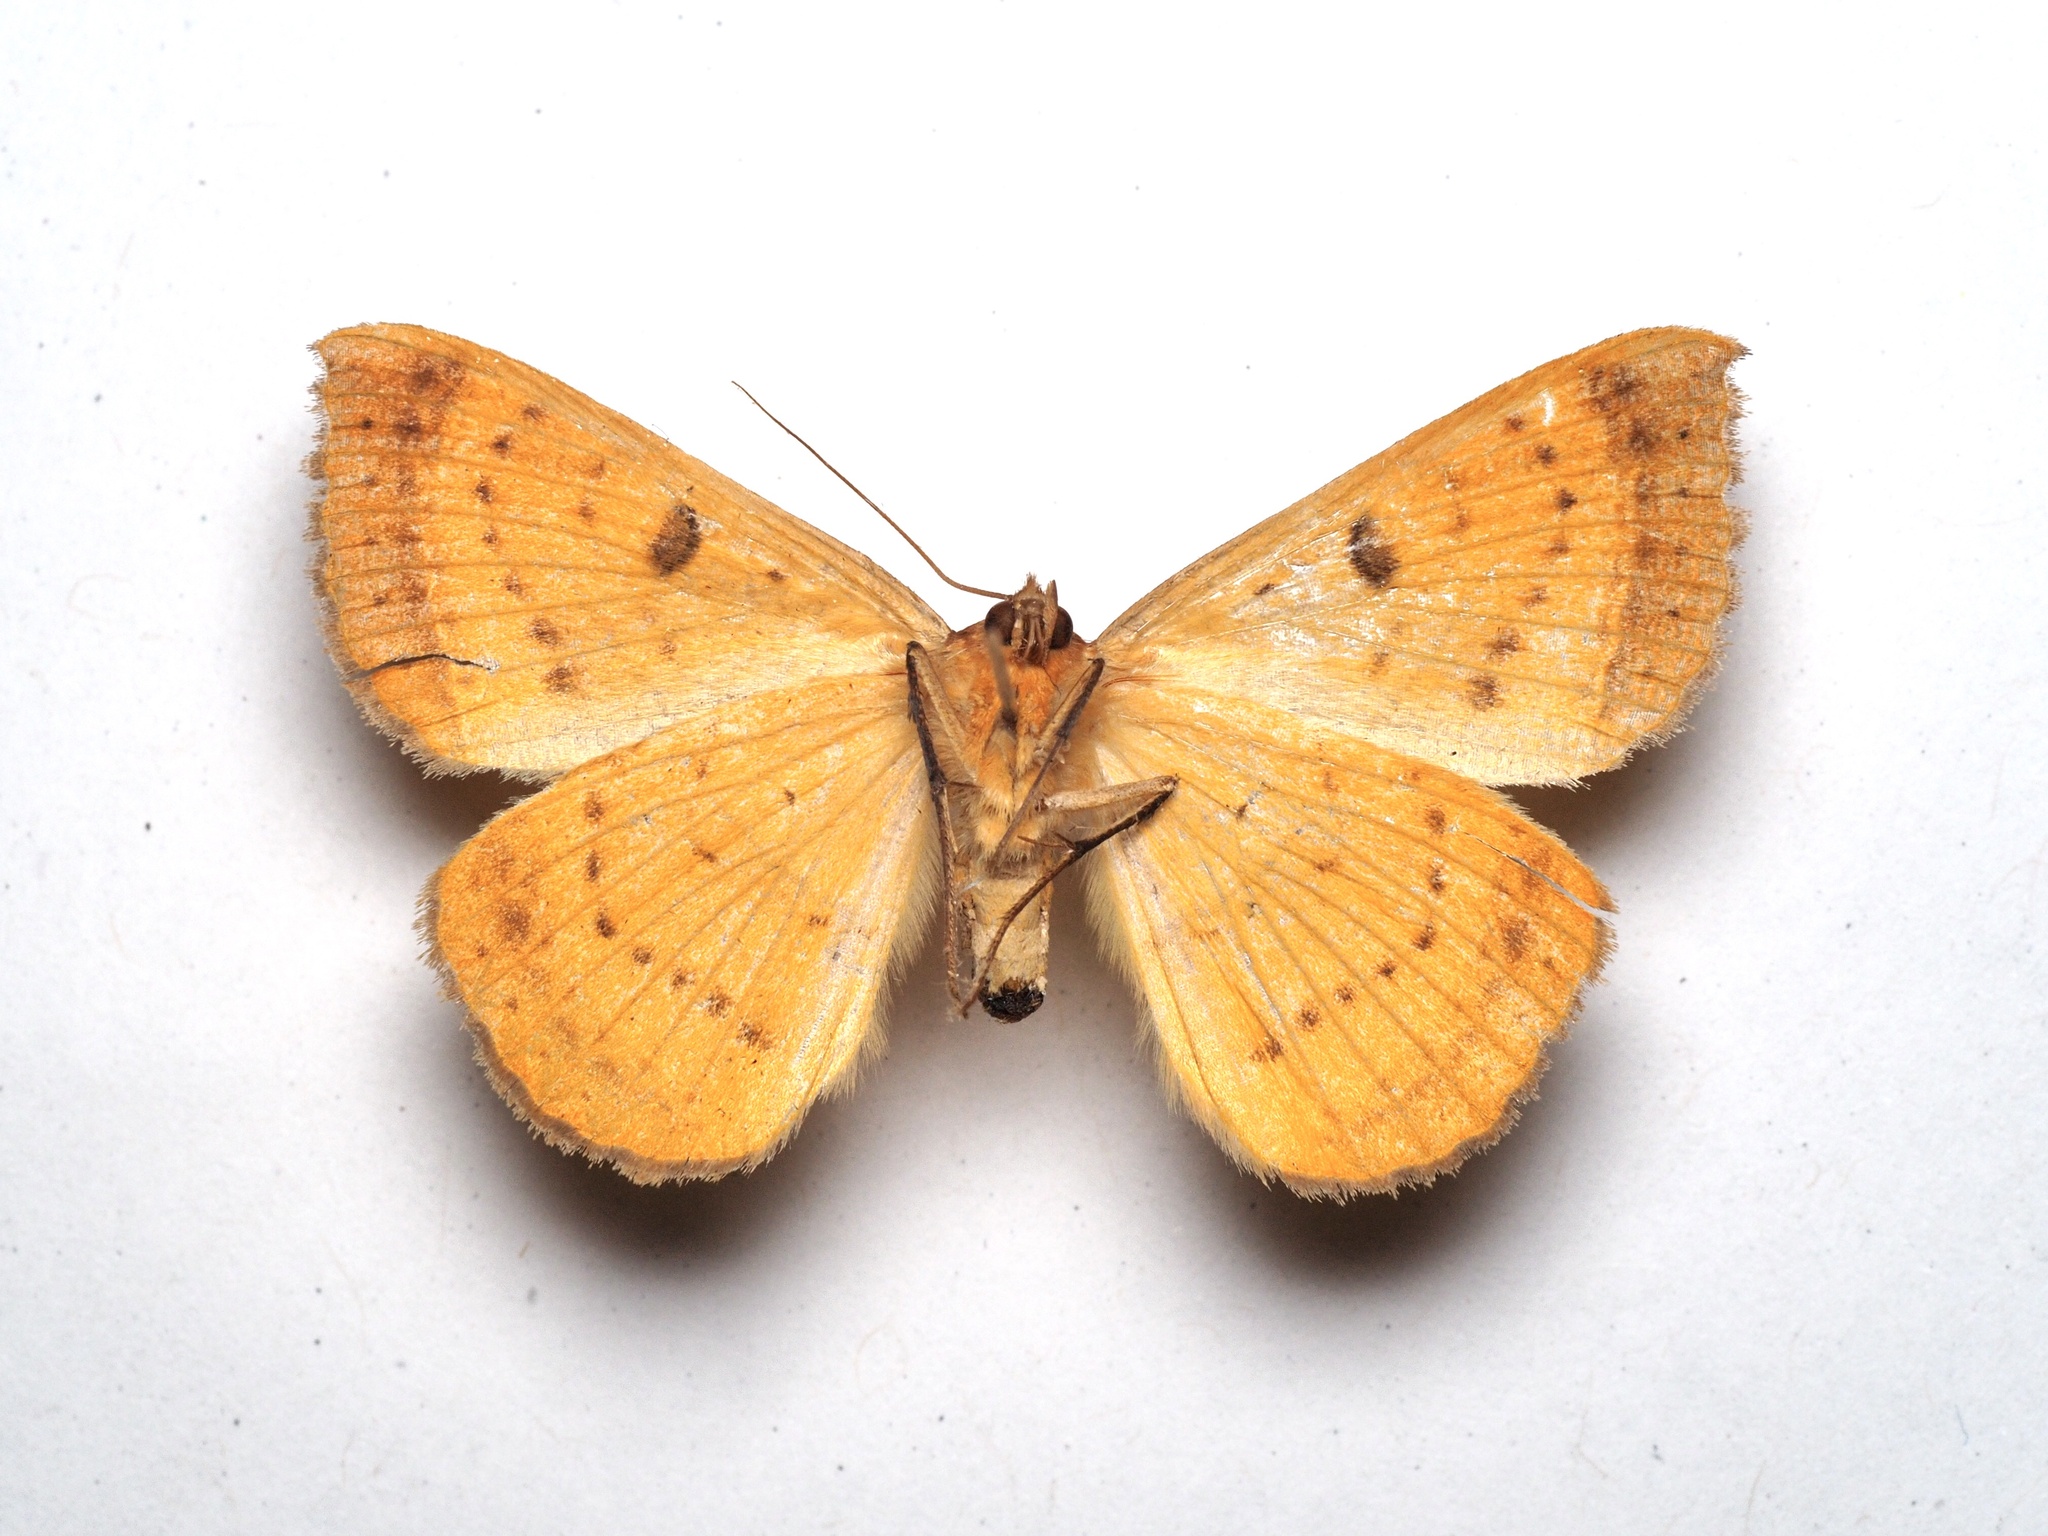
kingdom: Animalia
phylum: Arthropoda
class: Insecta
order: Lepidoptera
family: Erebidae
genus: Entomogramma
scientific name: Entomogramma pardus
